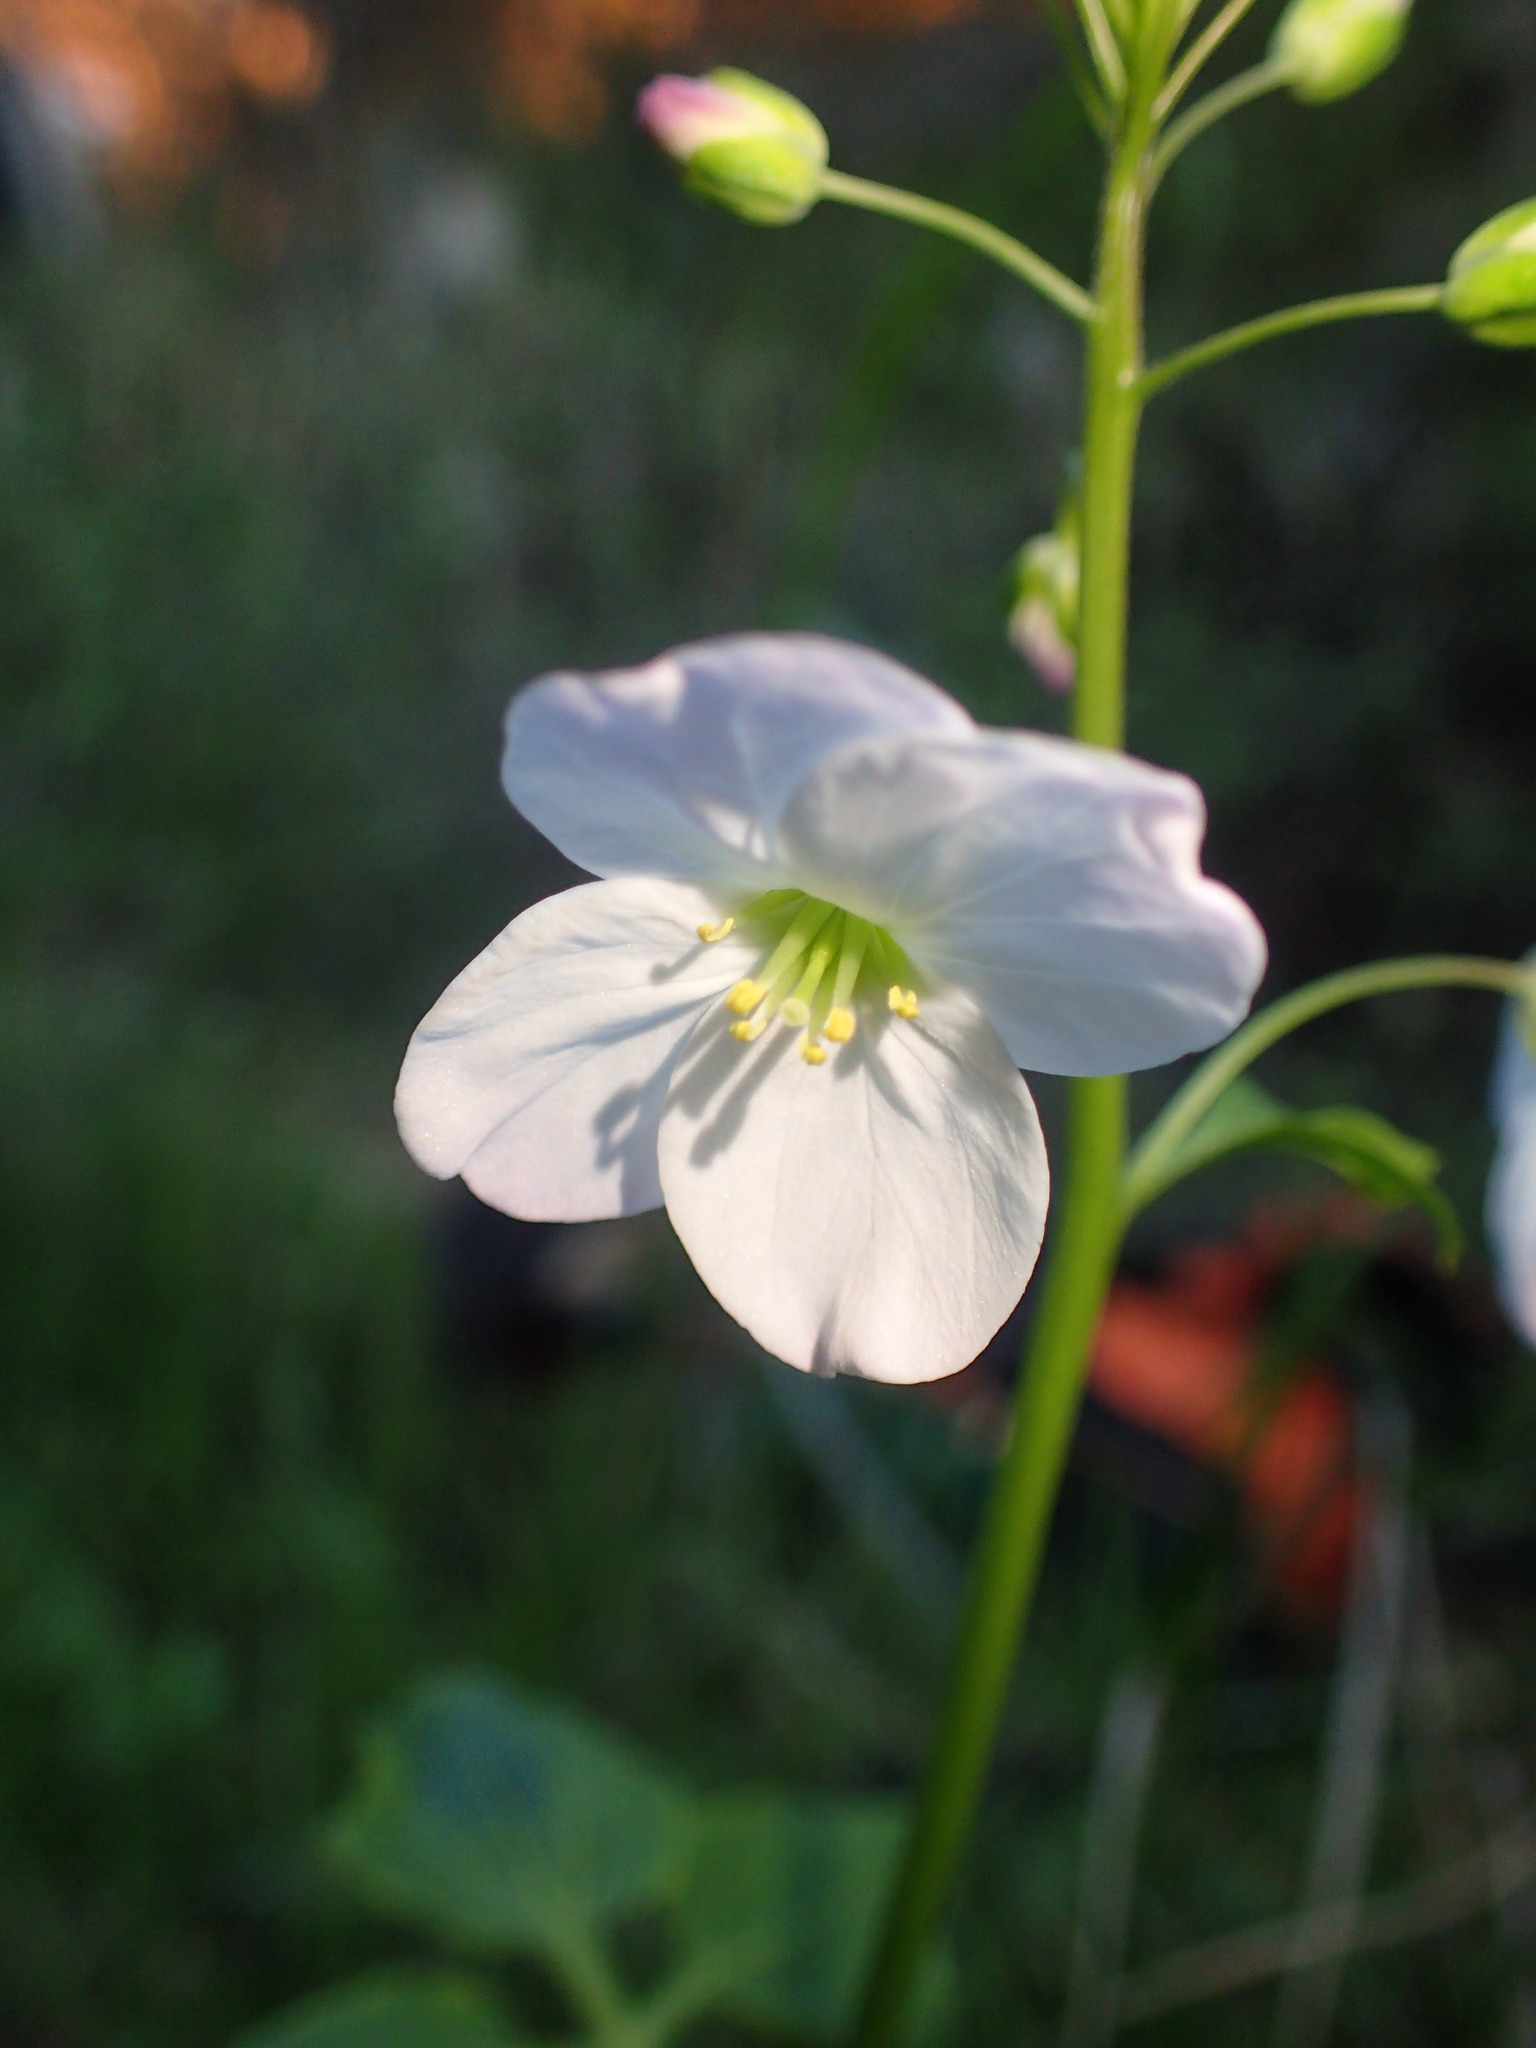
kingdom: Plantae
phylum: Tracheophyta
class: Magnoliopsida
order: Brassicales
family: Brassicaceae
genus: Cardamine
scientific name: Cardamine californica
